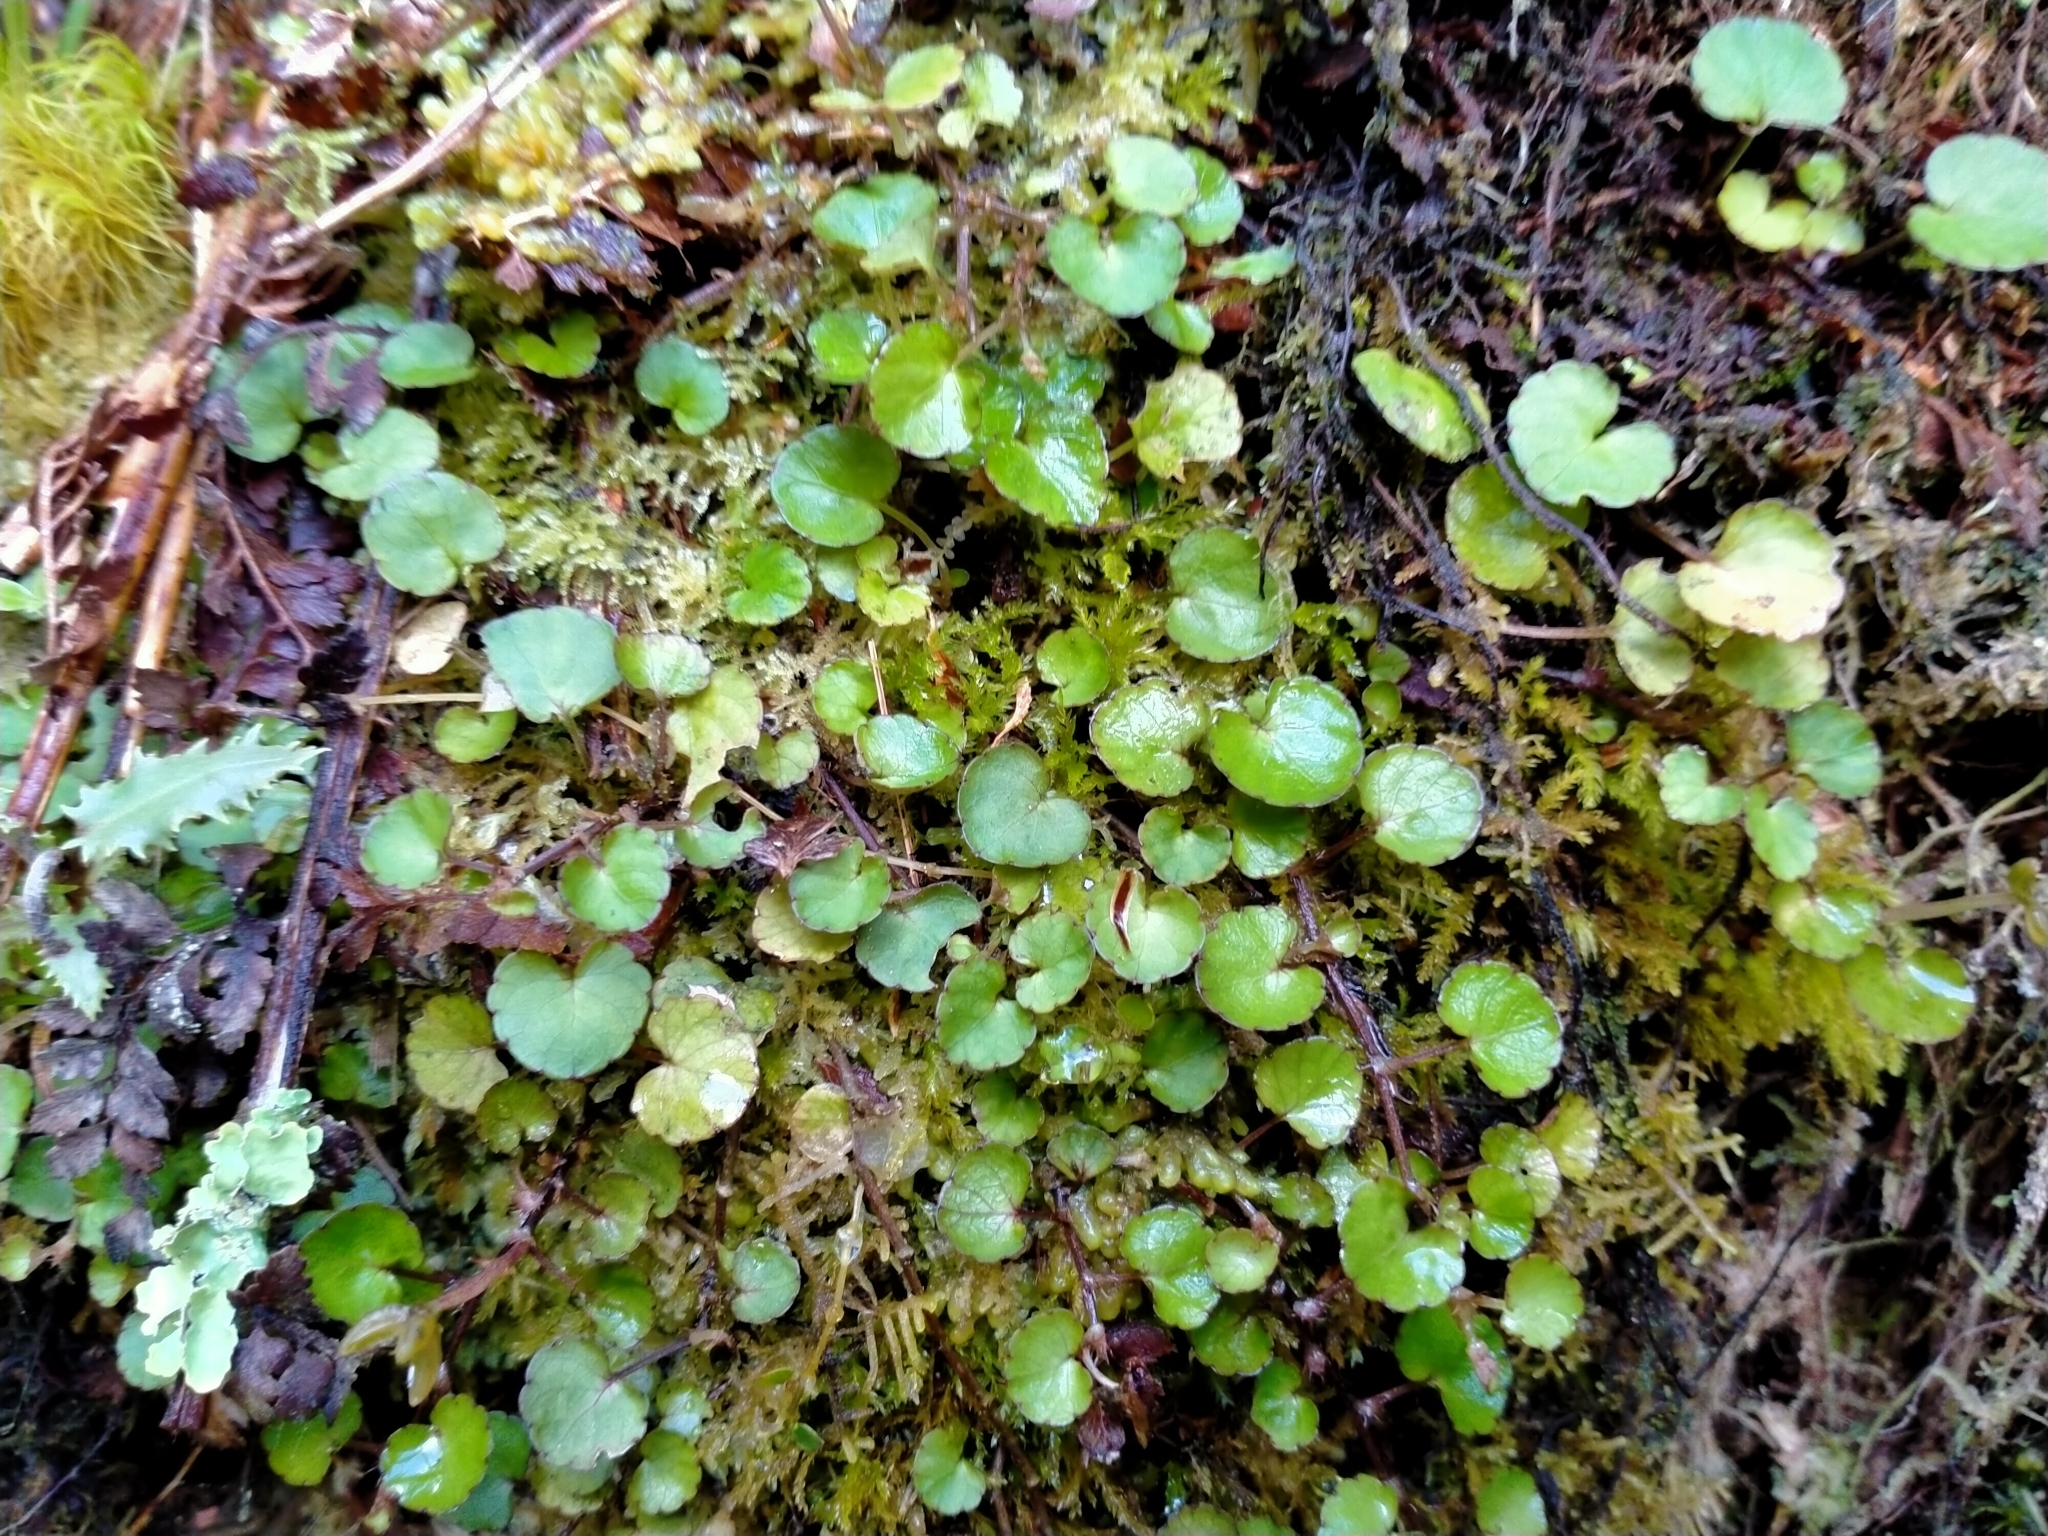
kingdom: Plantae
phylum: Tracheophyta
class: Magnoliopsida
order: Malpighiales
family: Violaceae
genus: Viola
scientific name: Viola filicaulis
